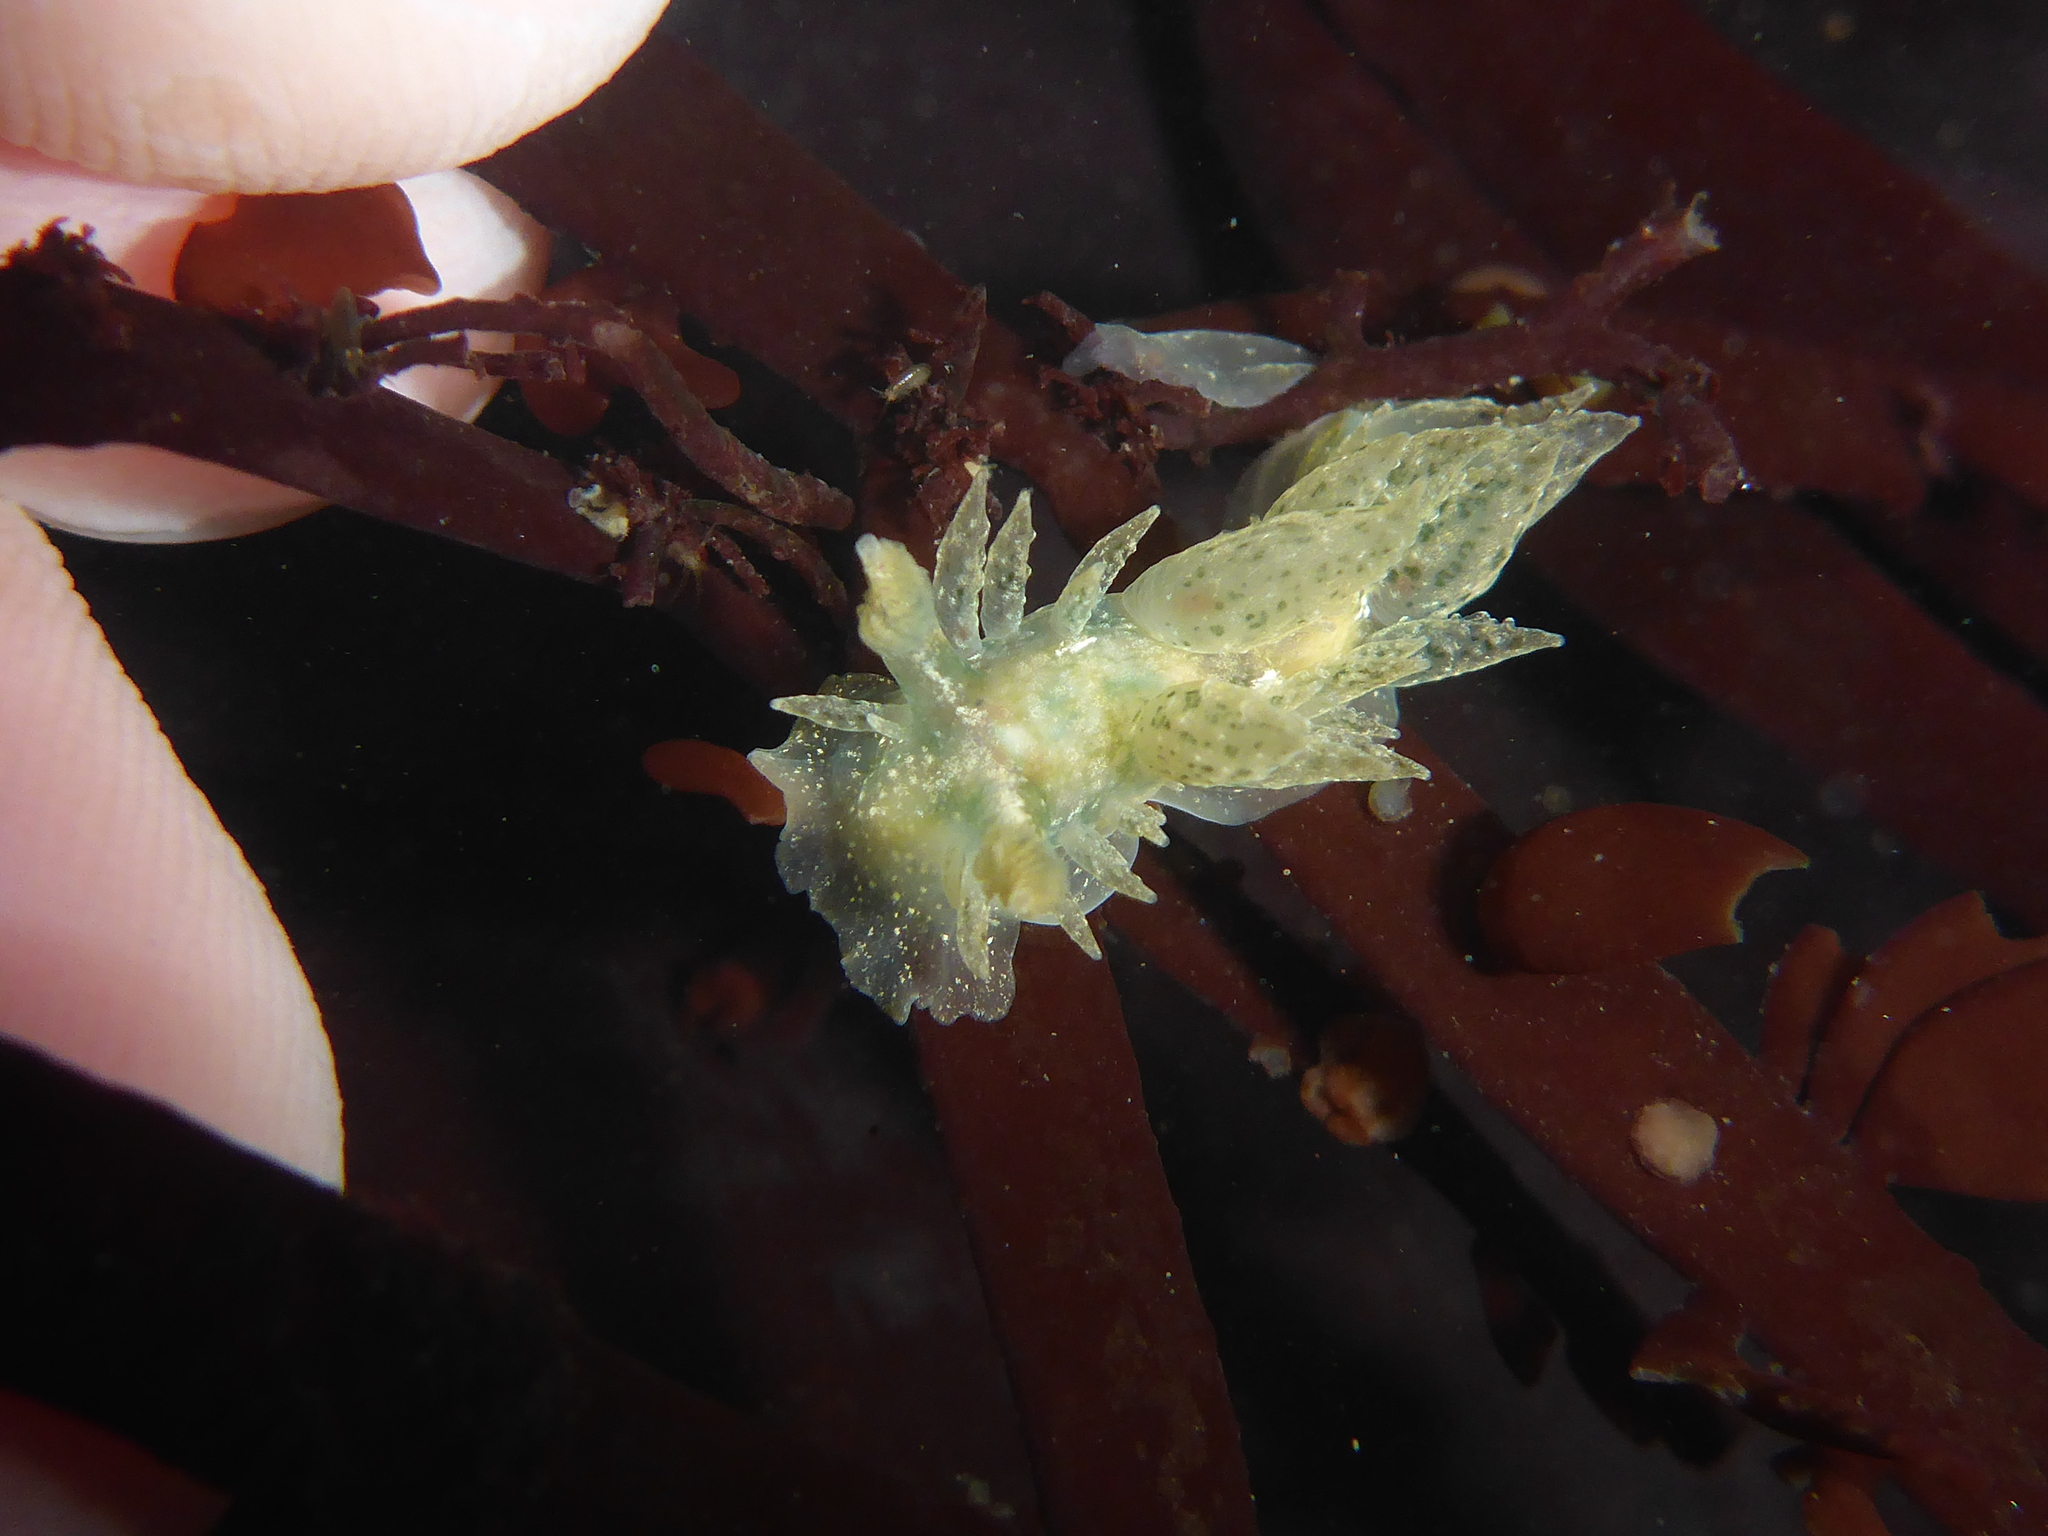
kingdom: Animalia
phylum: Mollusca
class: Gastropoda
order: Nudibranchia
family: Dironidae
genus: Dirona
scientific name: Dirona picta
